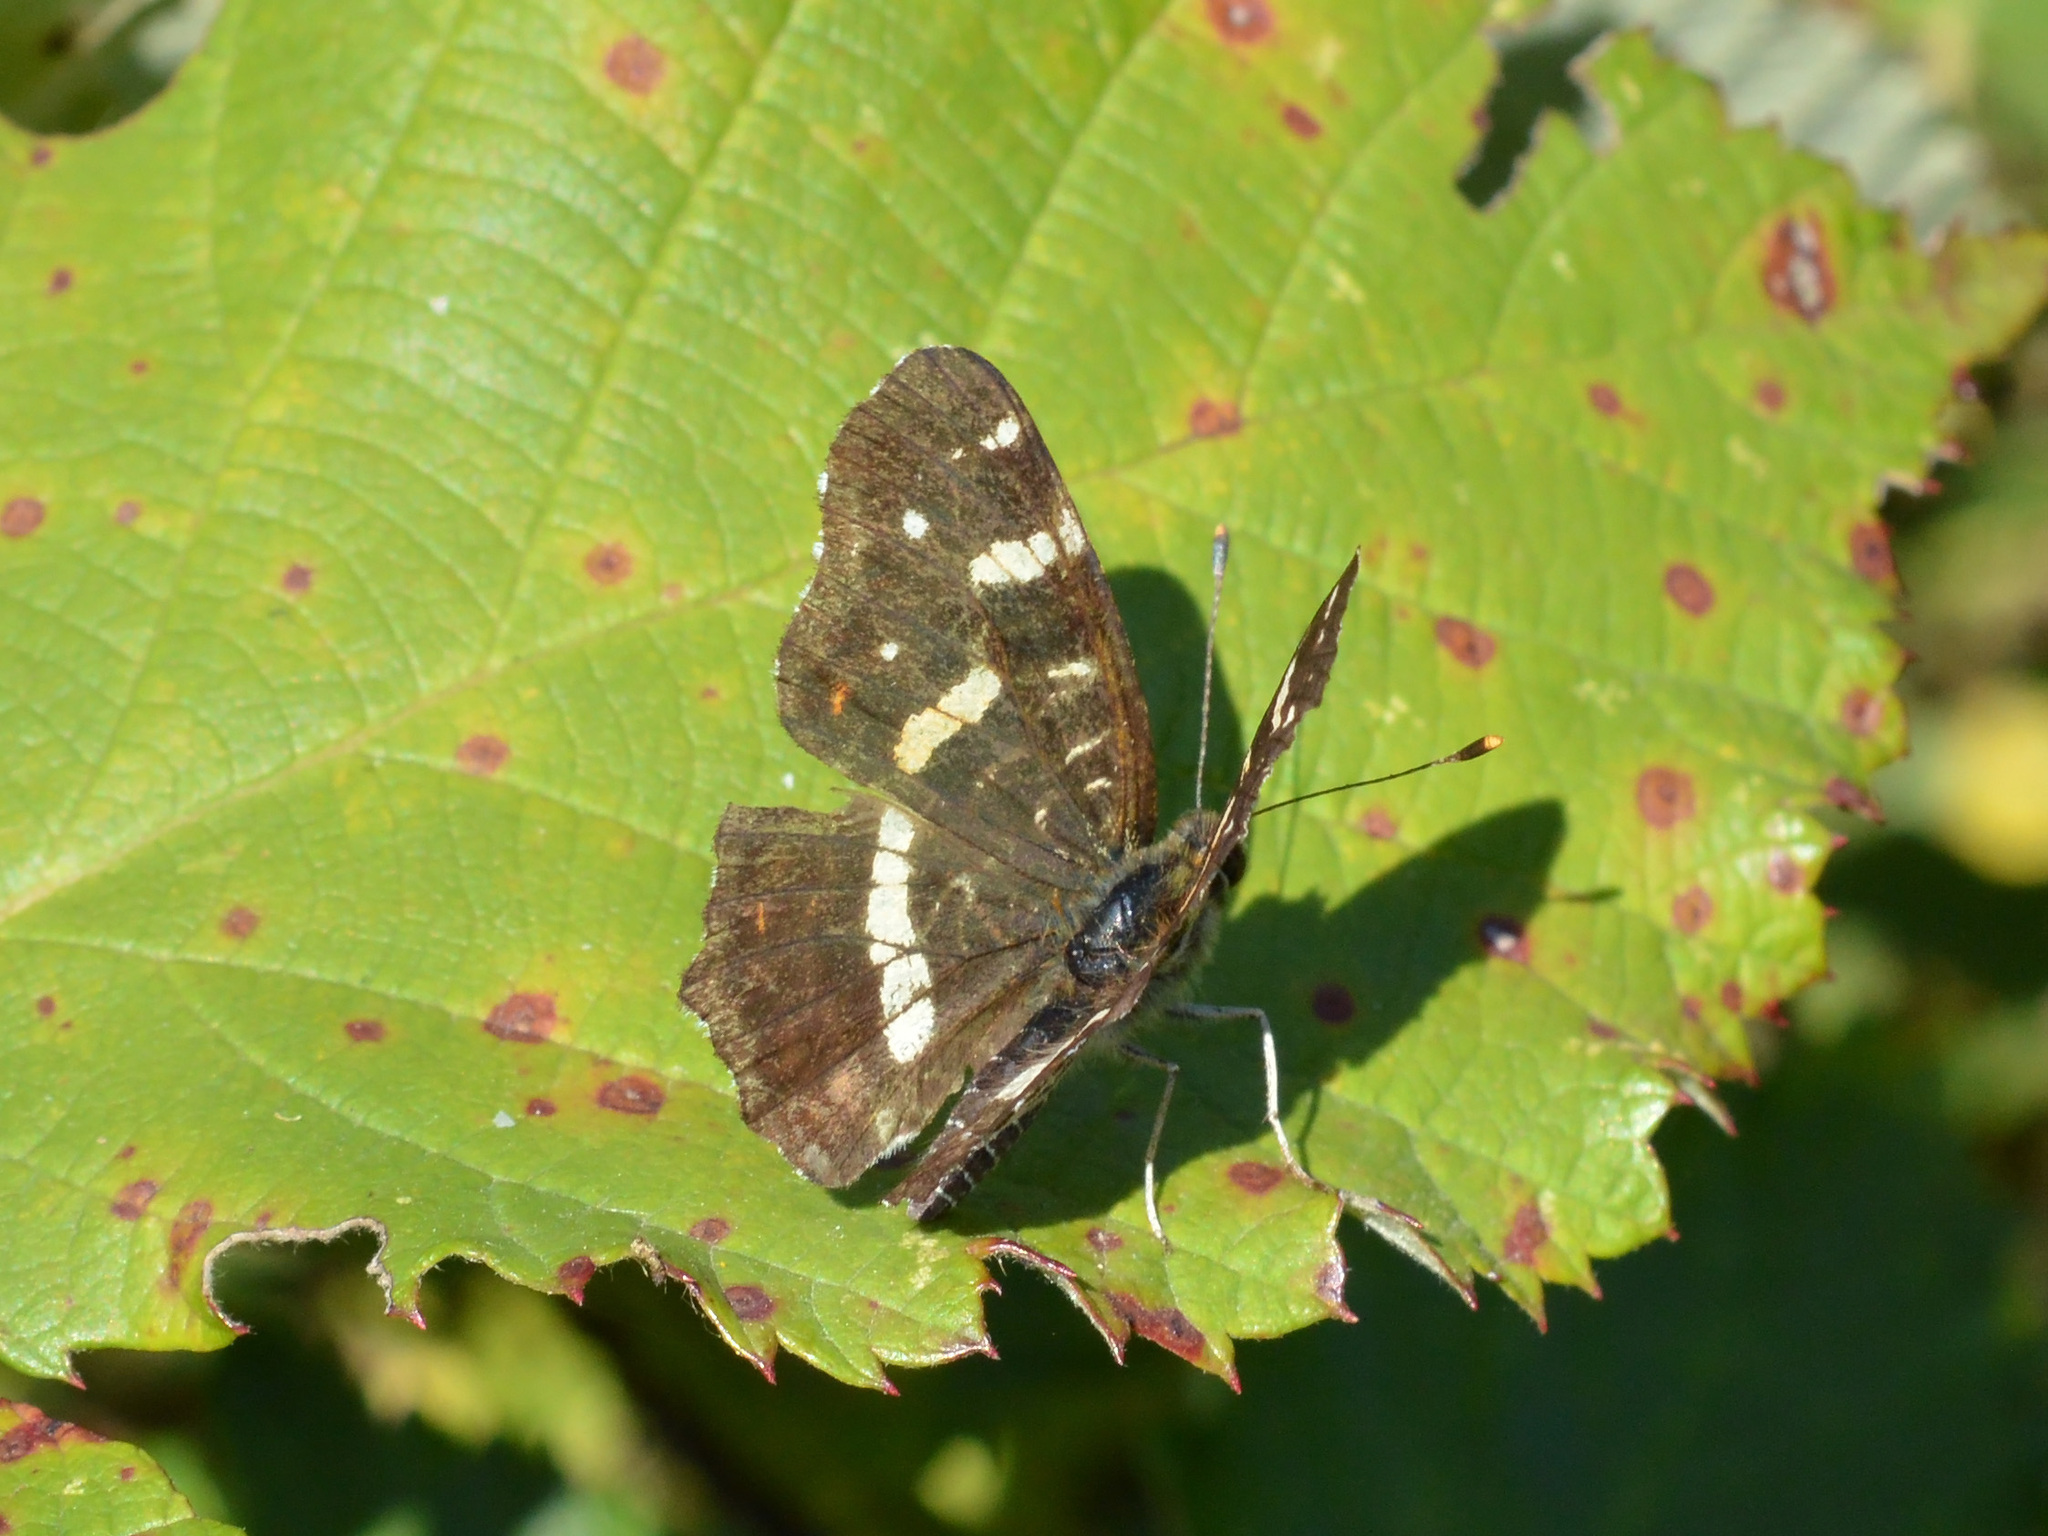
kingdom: Animalia
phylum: Arthropoda
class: Insecta
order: Lepidoptera
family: Nymphalidae
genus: Araschnia
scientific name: Araschnia levana
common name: Map butterfly
